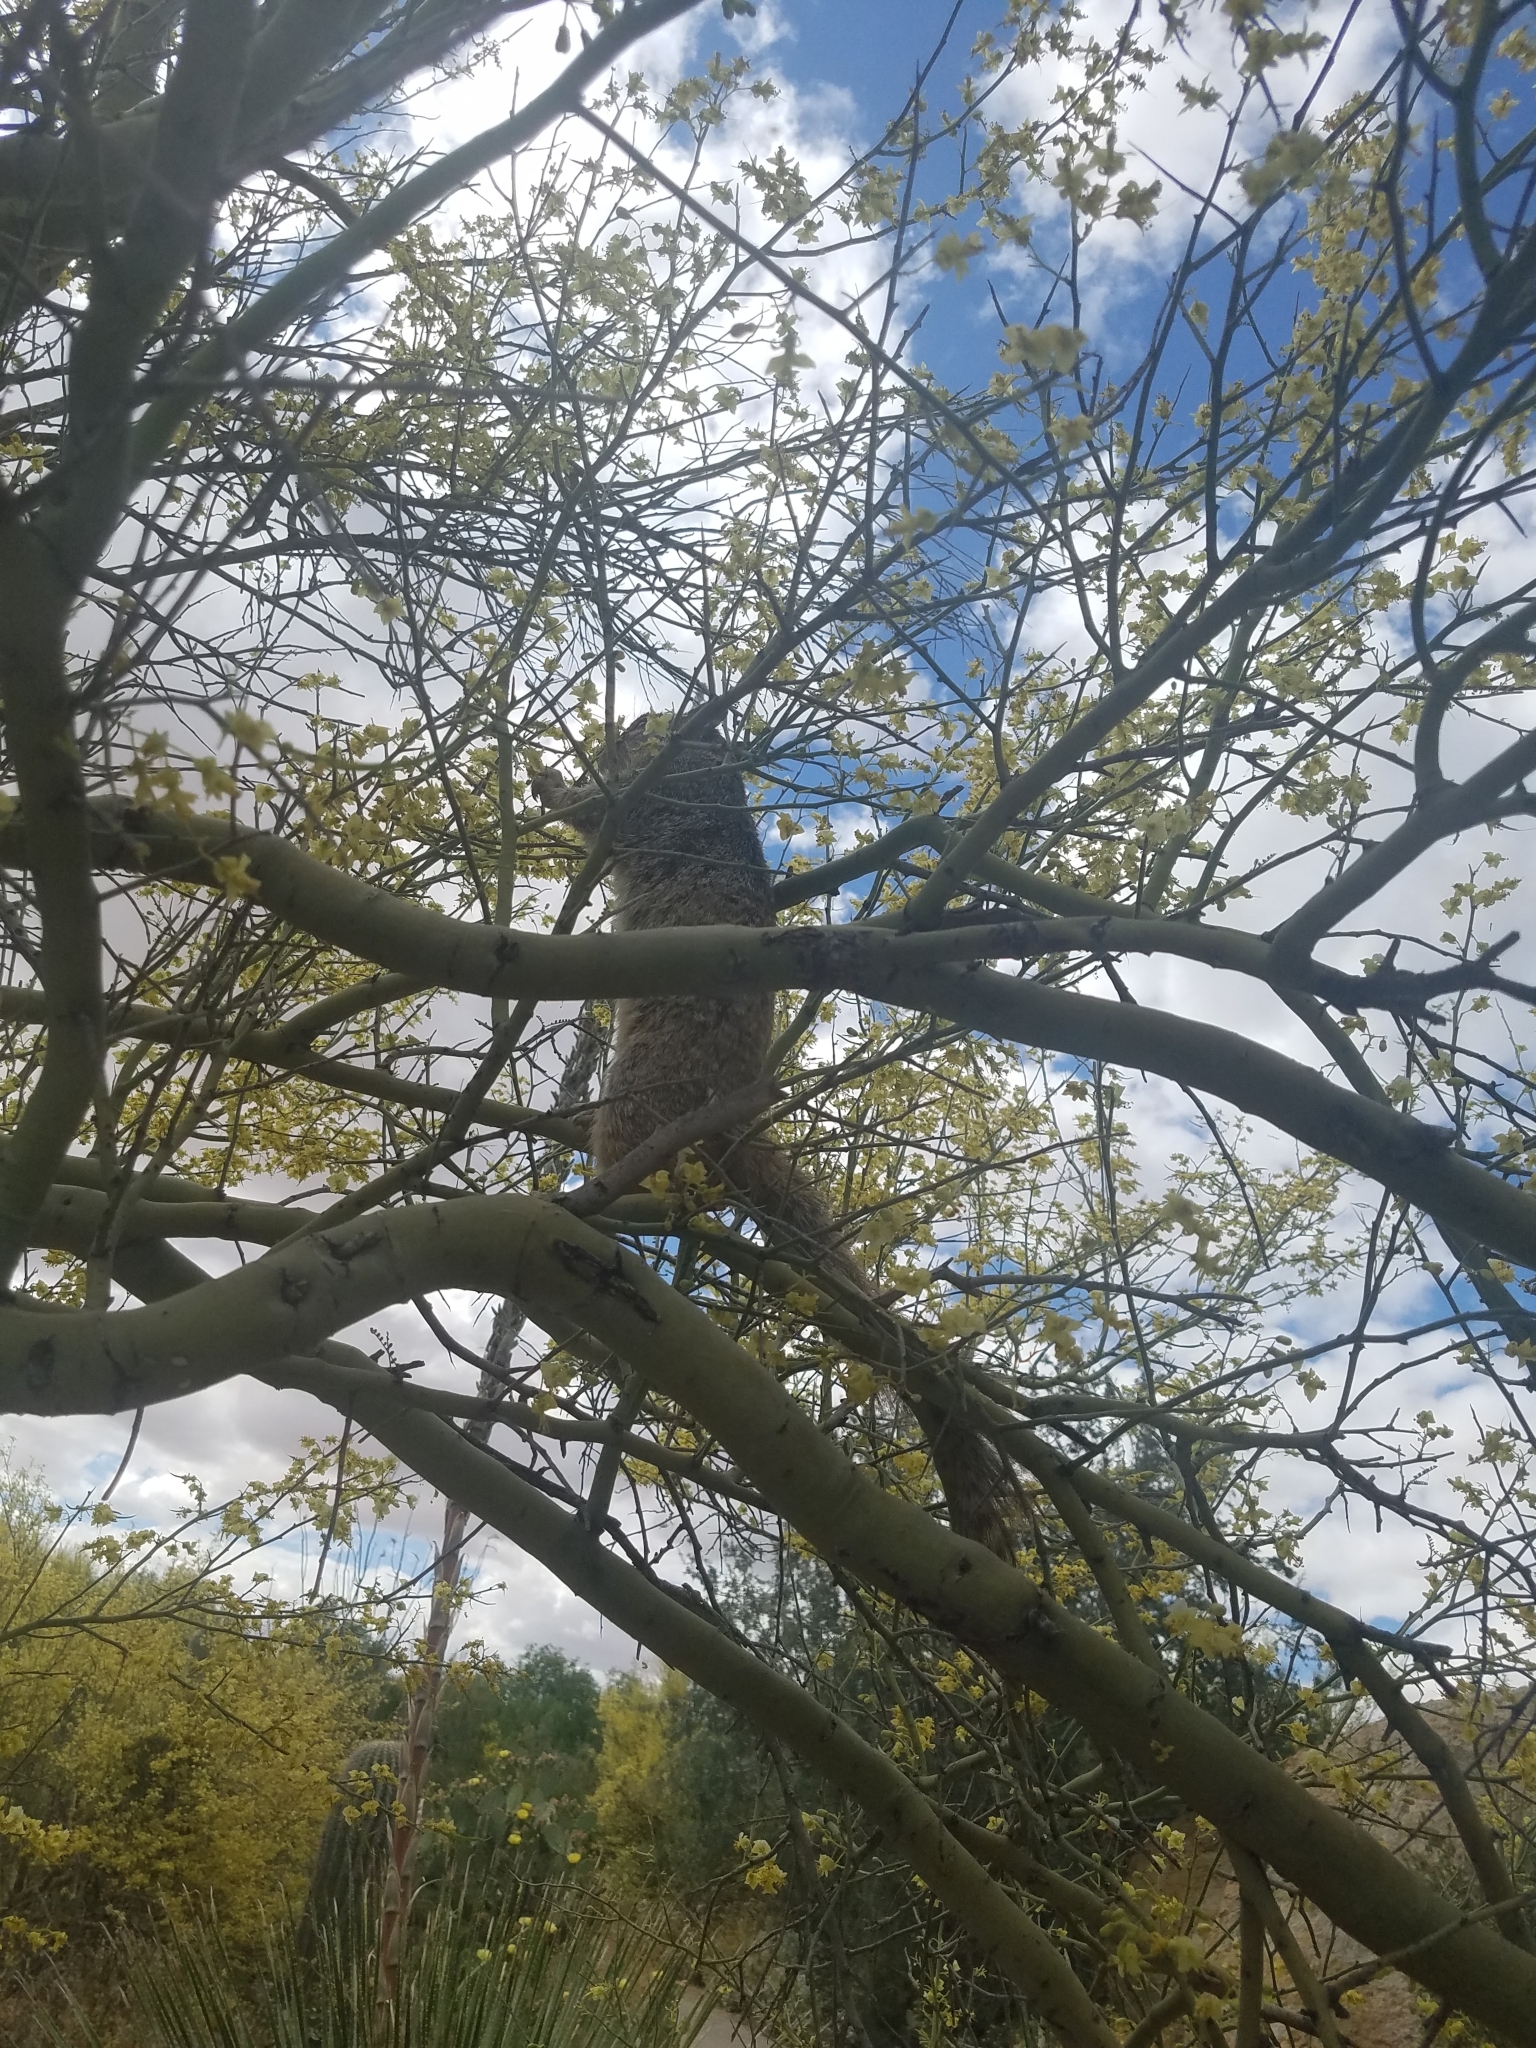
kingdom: Animalia
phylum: Chordata
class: Mammalia
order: Rodentia
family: Sciuridae
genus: Otospermophilus
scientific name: Otospermophilus variegatus
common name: Rock squirrel
